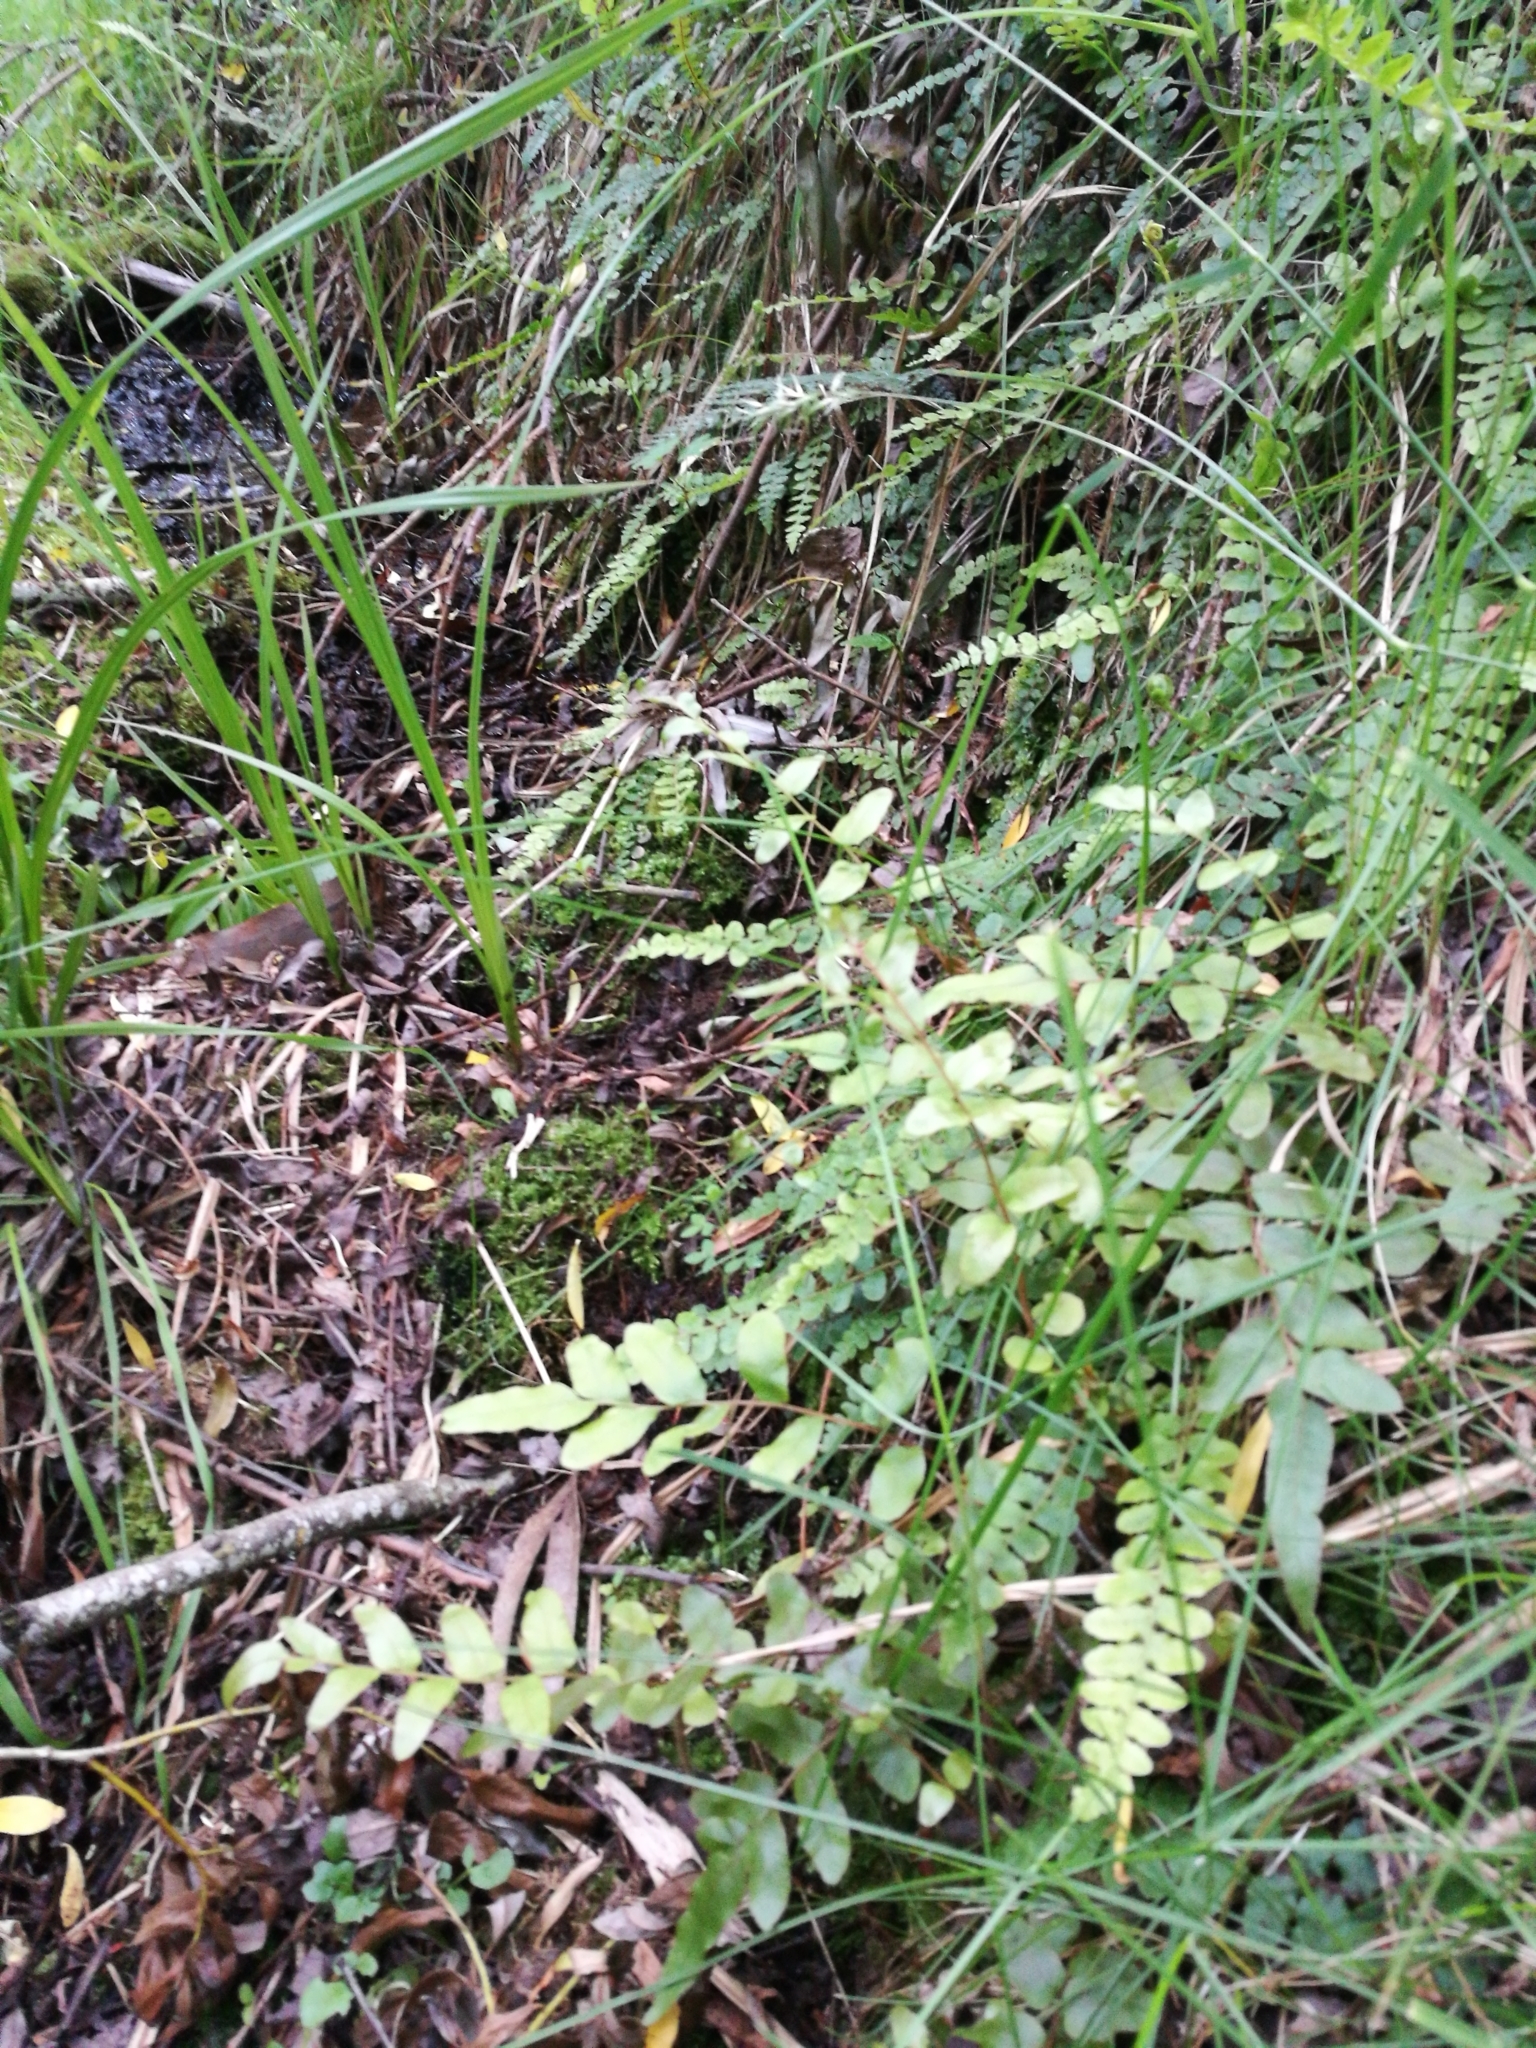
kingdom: Plantae
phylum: Tracheophyta
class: Polypodiopsida
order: Polypodiales
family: Blechnaceae
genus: Cranfillia
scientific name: Cranfillia fluviatilis
